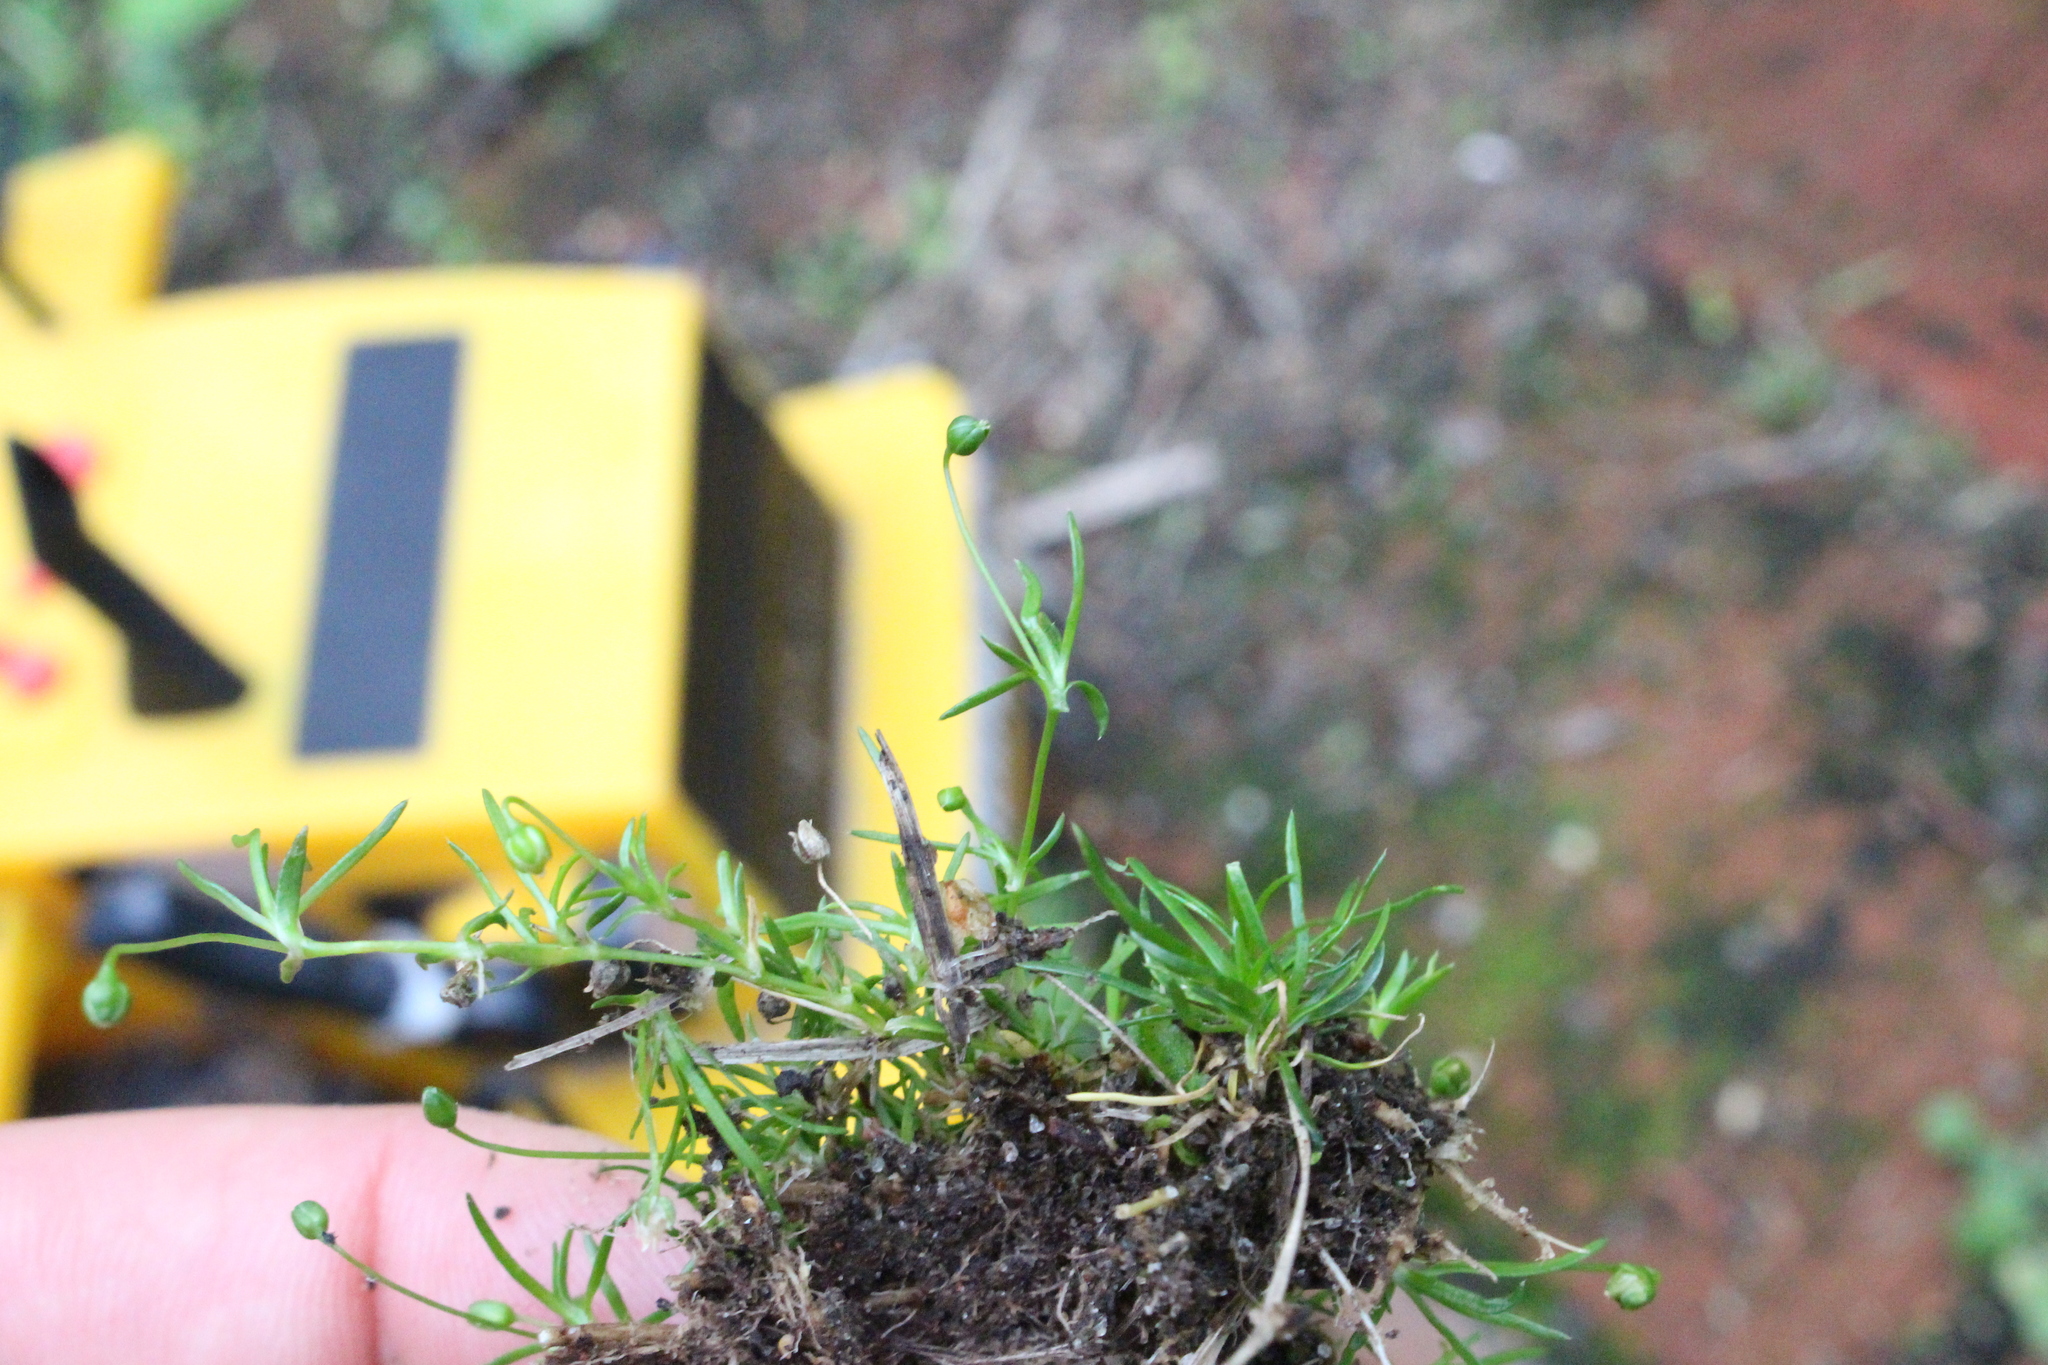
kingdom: Plantae
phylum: Tracheophyta
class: Magnoliopsida
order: Caryophyllales
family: Caryophyllaceae
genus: Sagina
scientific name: Sagina procumbens
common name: Procumbent pearlwort
